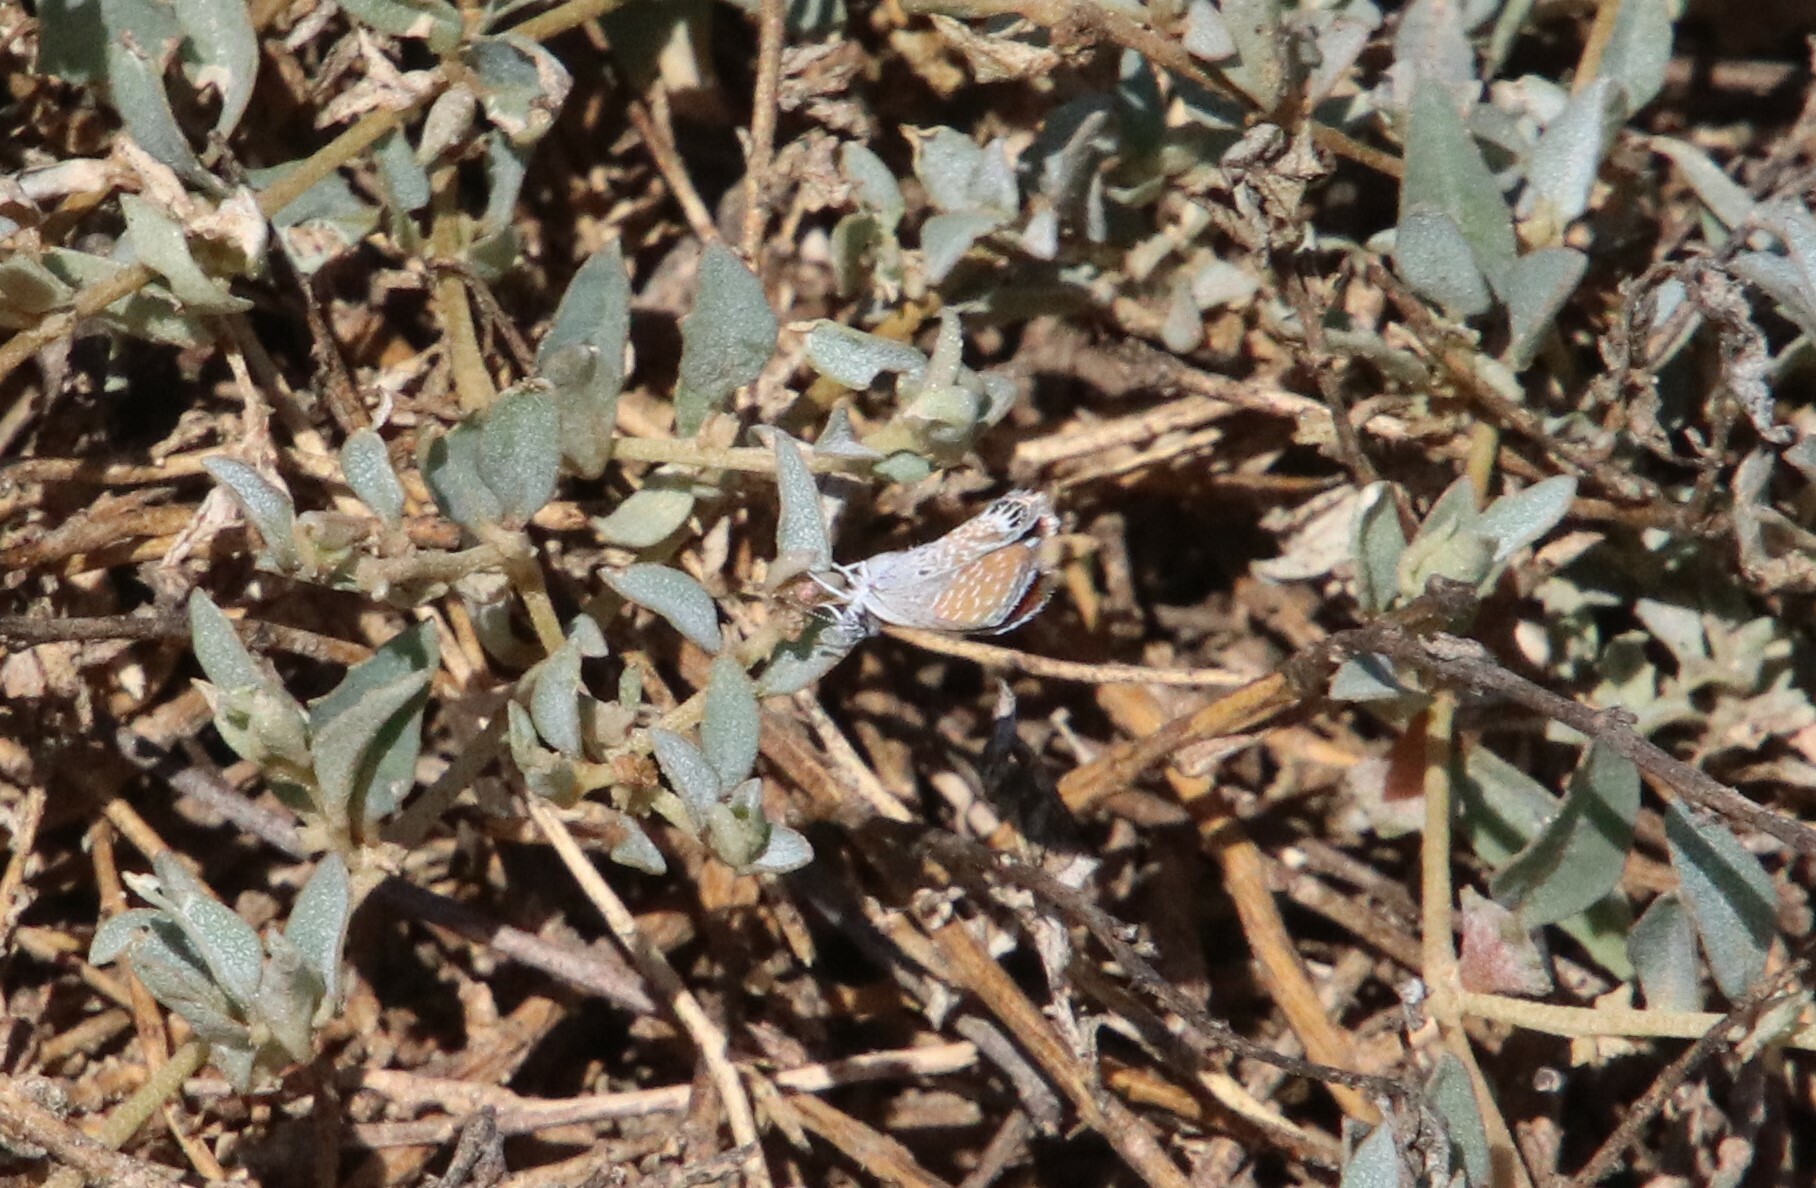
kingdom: Animalia
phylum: Arthropoda
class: Insecta
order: Lepidoptera
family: Lycaenidae
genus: Brephidium
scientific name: Brephidium exilis
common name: Pygmy blue
